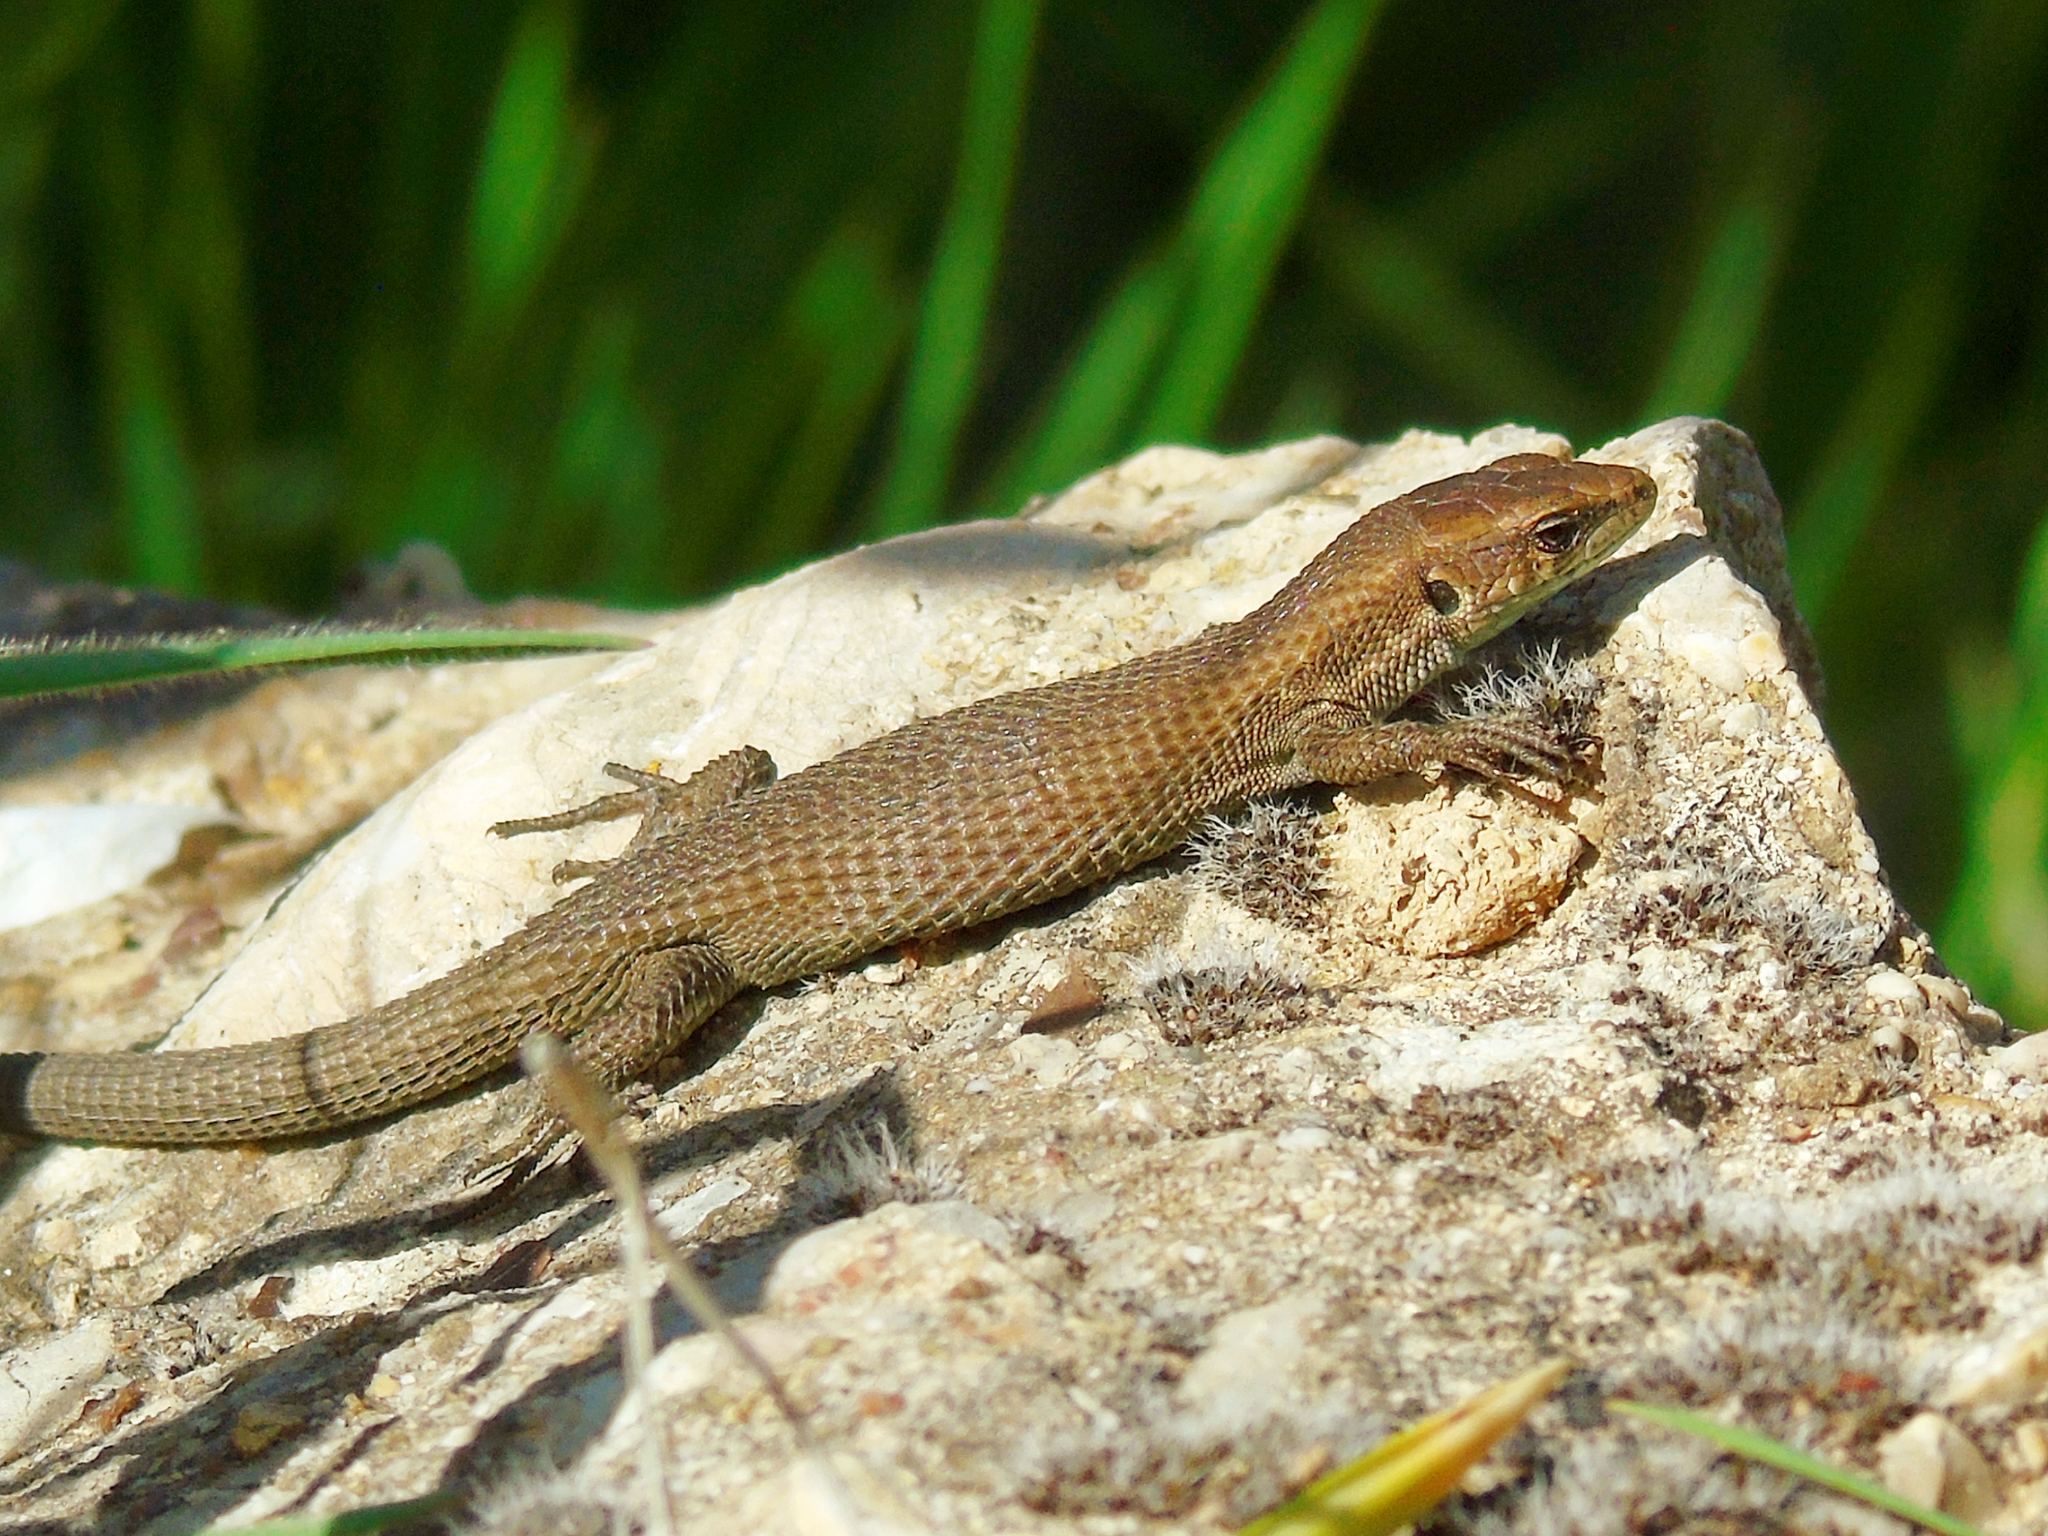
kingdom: Animalia
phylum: Chordata
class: Squamata
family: Lacertidae
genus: Algyroides
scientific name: Algyroides moreoticus
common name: Greek algyroides
